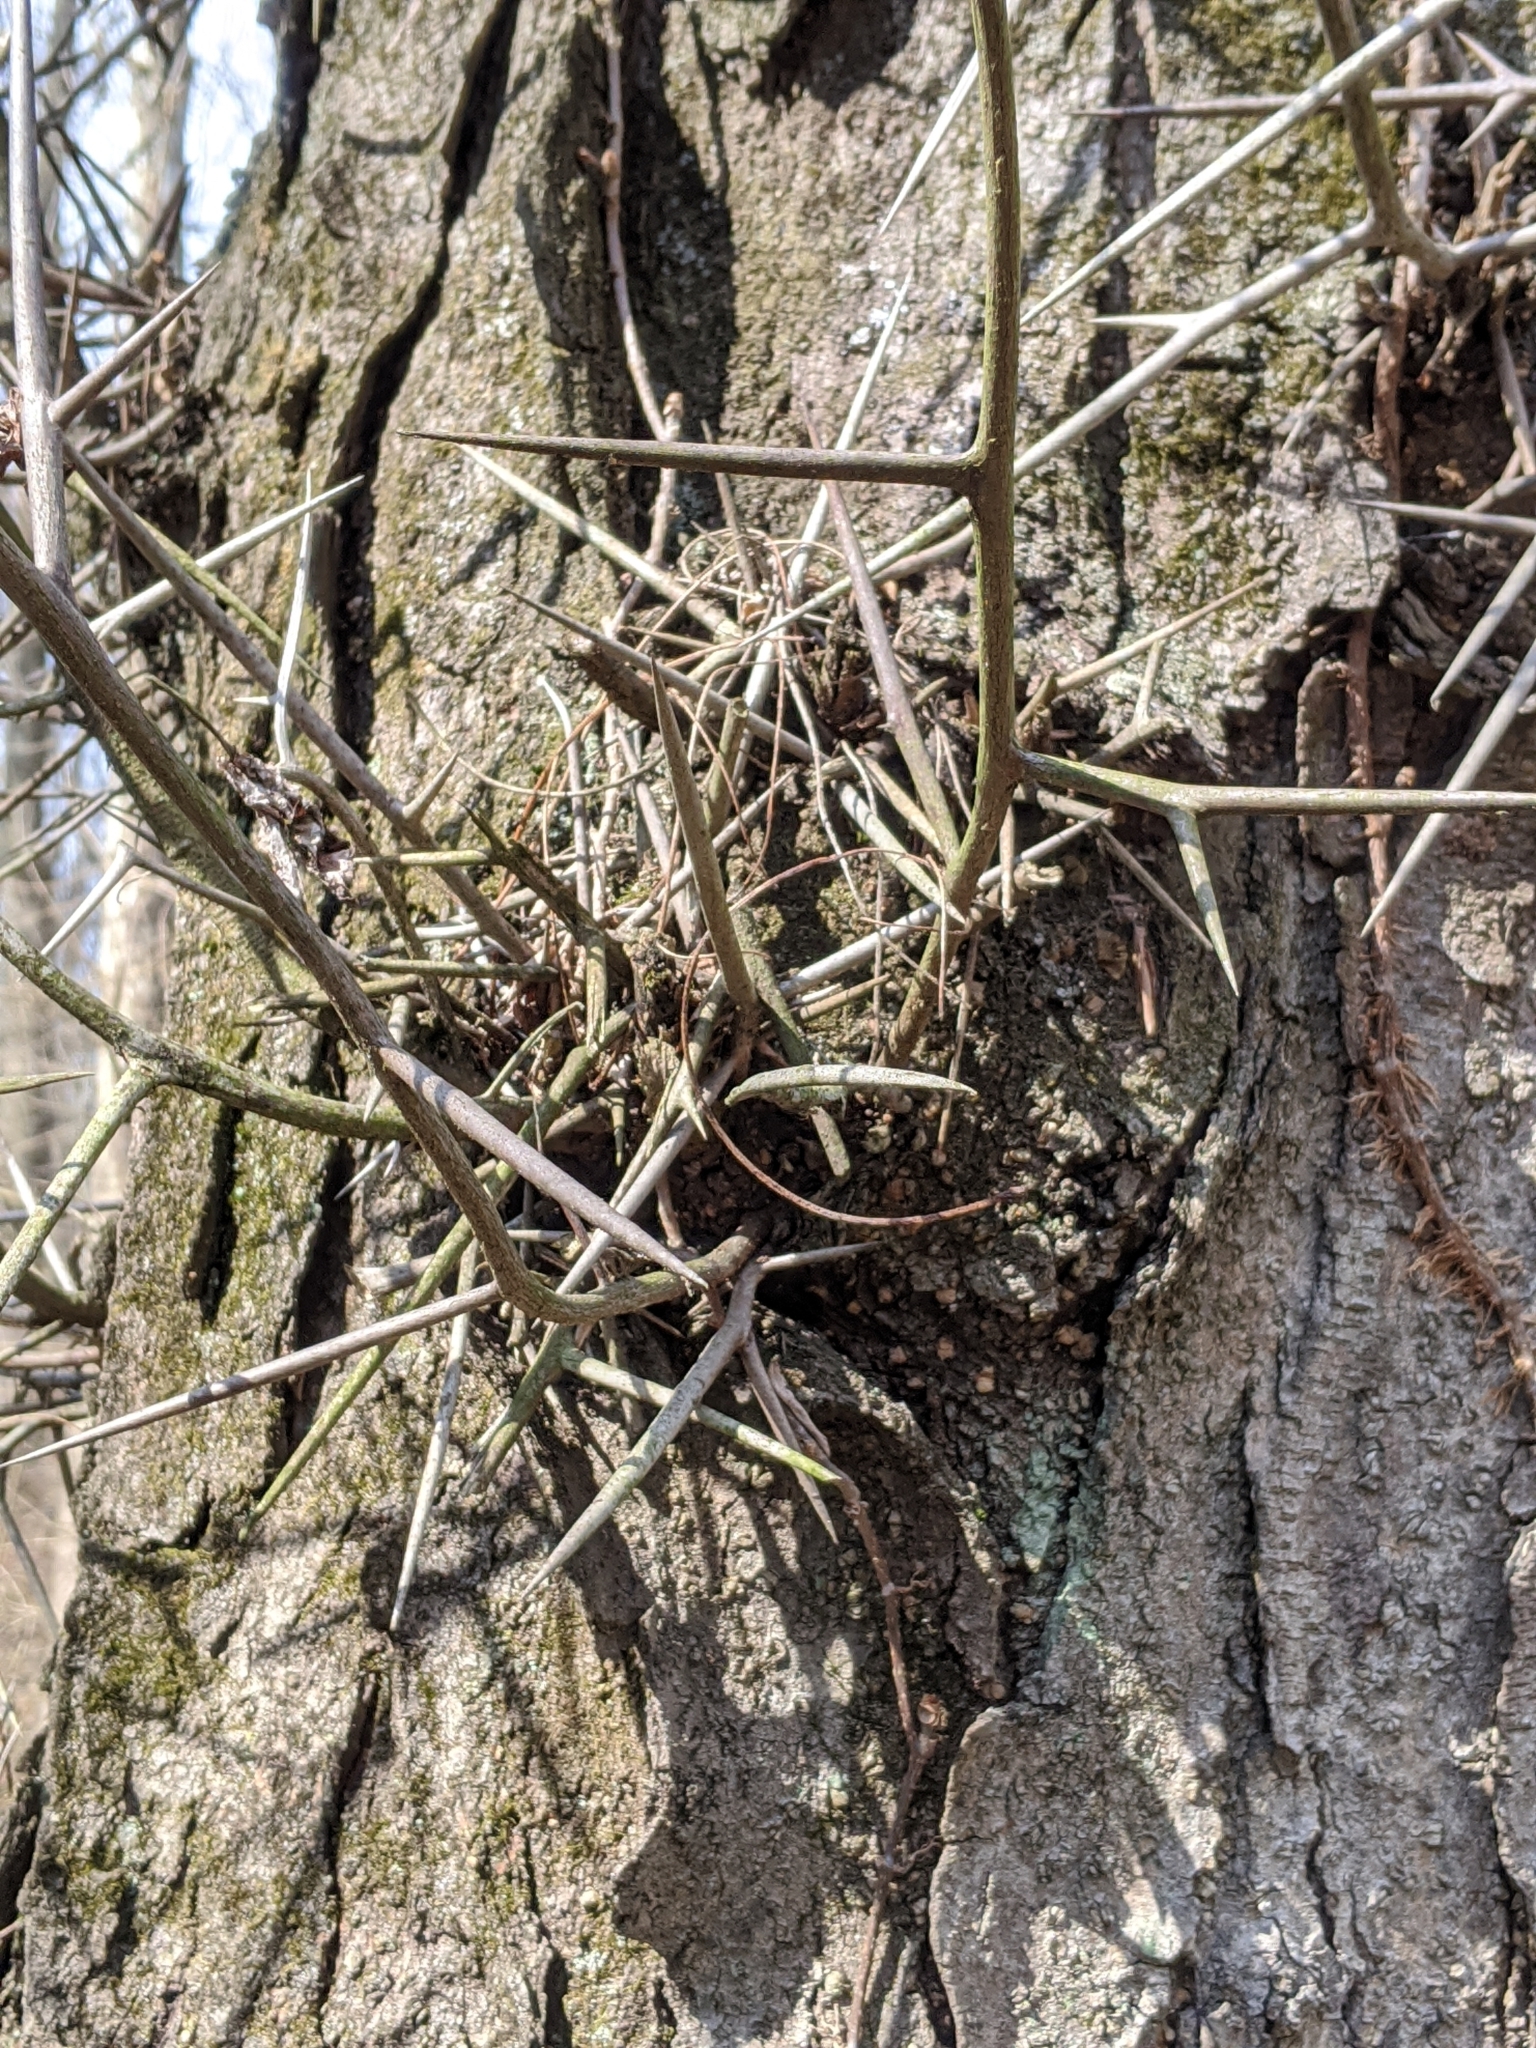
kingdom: Plantae
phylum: Tracheophyta
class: Magnoliopsida
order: Fabales
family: Fabaceae
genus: Gleditsia
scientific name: Gleditsia triacanthos
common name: Common honeylocust
